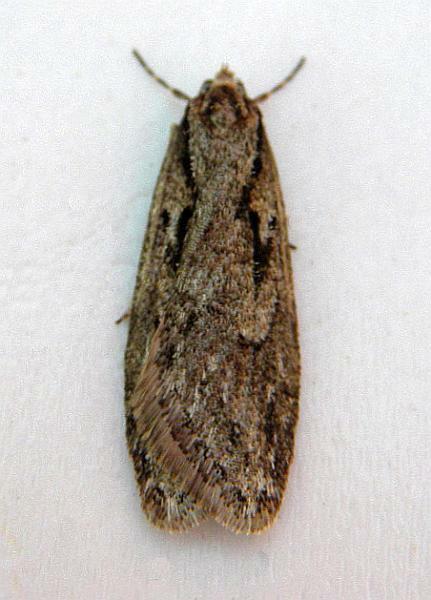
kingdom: Animalia
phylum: Arthropoda
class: Insecta
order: Lepidoptera
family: Depressariidae
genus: Semioscopis
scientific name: Semioscopis aurorella
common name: Aurora flatbody moth
